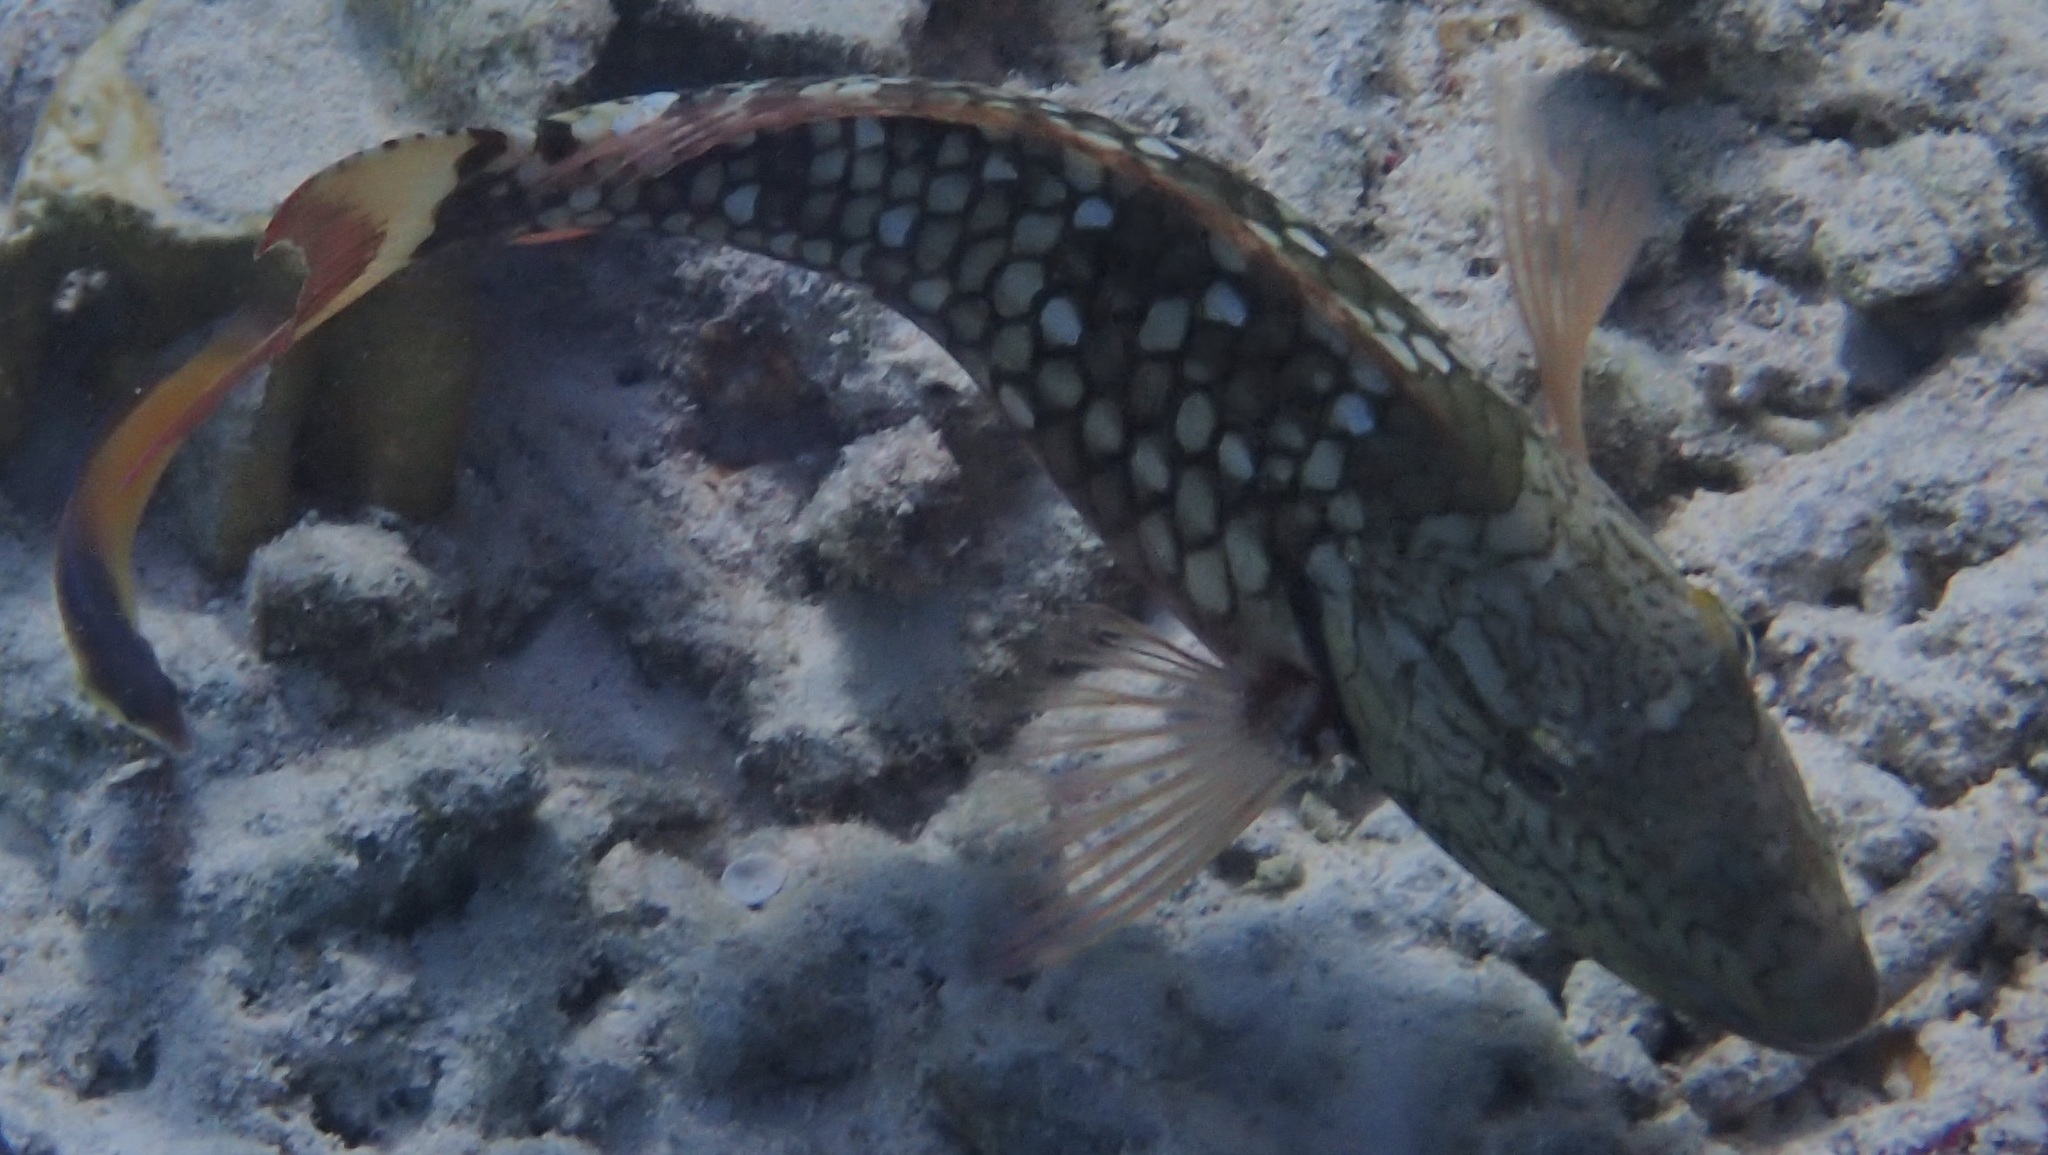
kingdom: Animalia
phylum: Chordata
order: Perciformes
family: Scaridae
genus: Sparisoma
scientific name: Sparisoma viride
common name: Stoplight parrotfish
